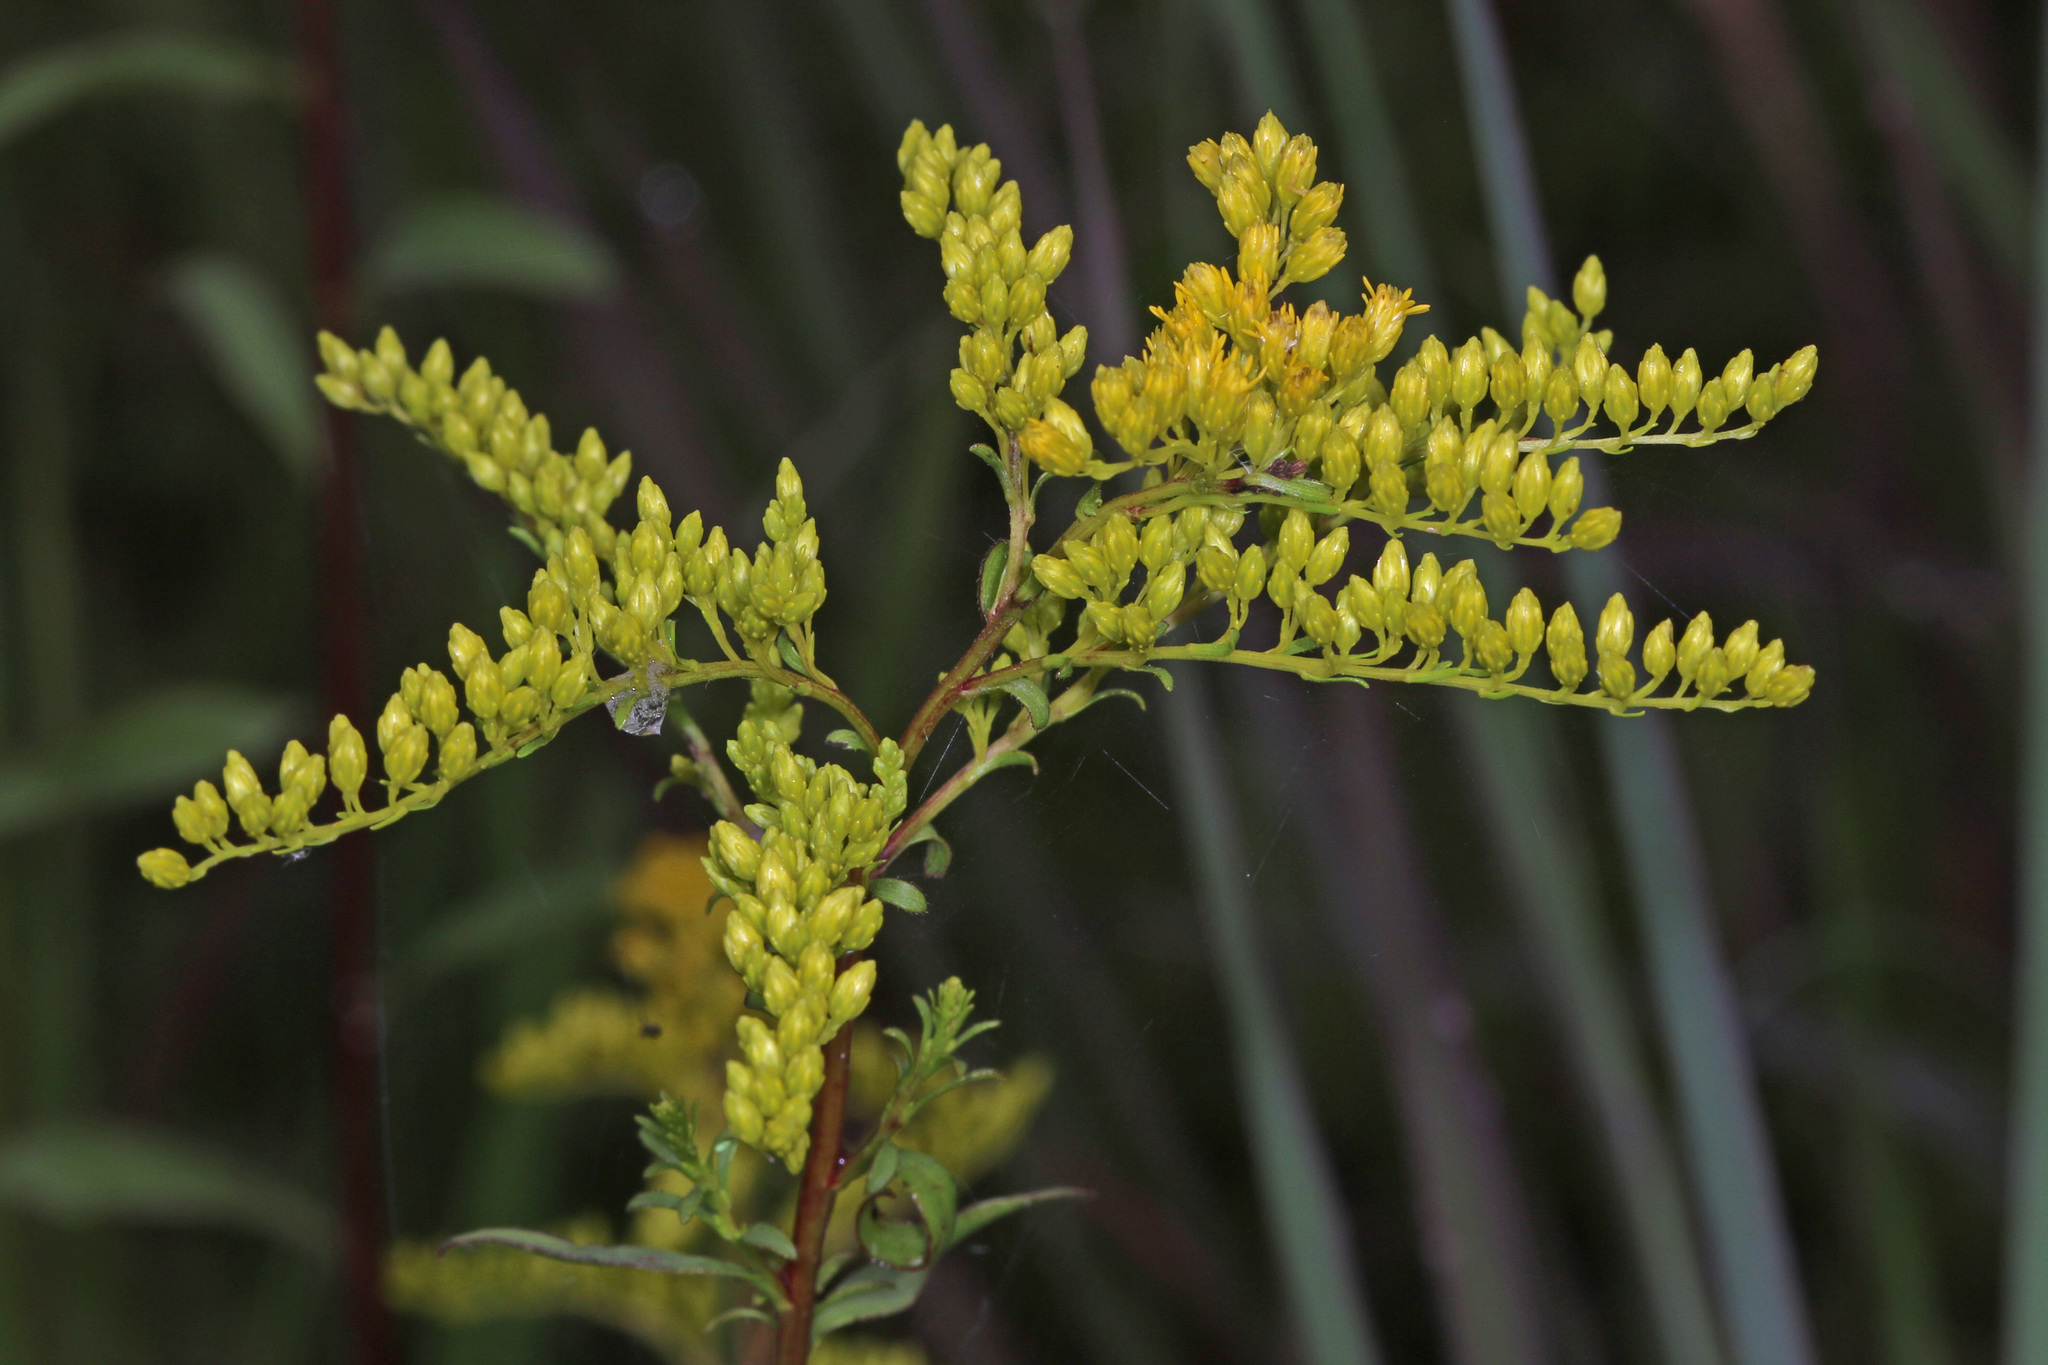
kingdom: Plantae
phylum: Tracheophyta
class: Magnoliopsida
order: Asterales
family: Asteraceae
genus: Solidago
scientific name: Solidago juncea
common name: Early goldenrod
